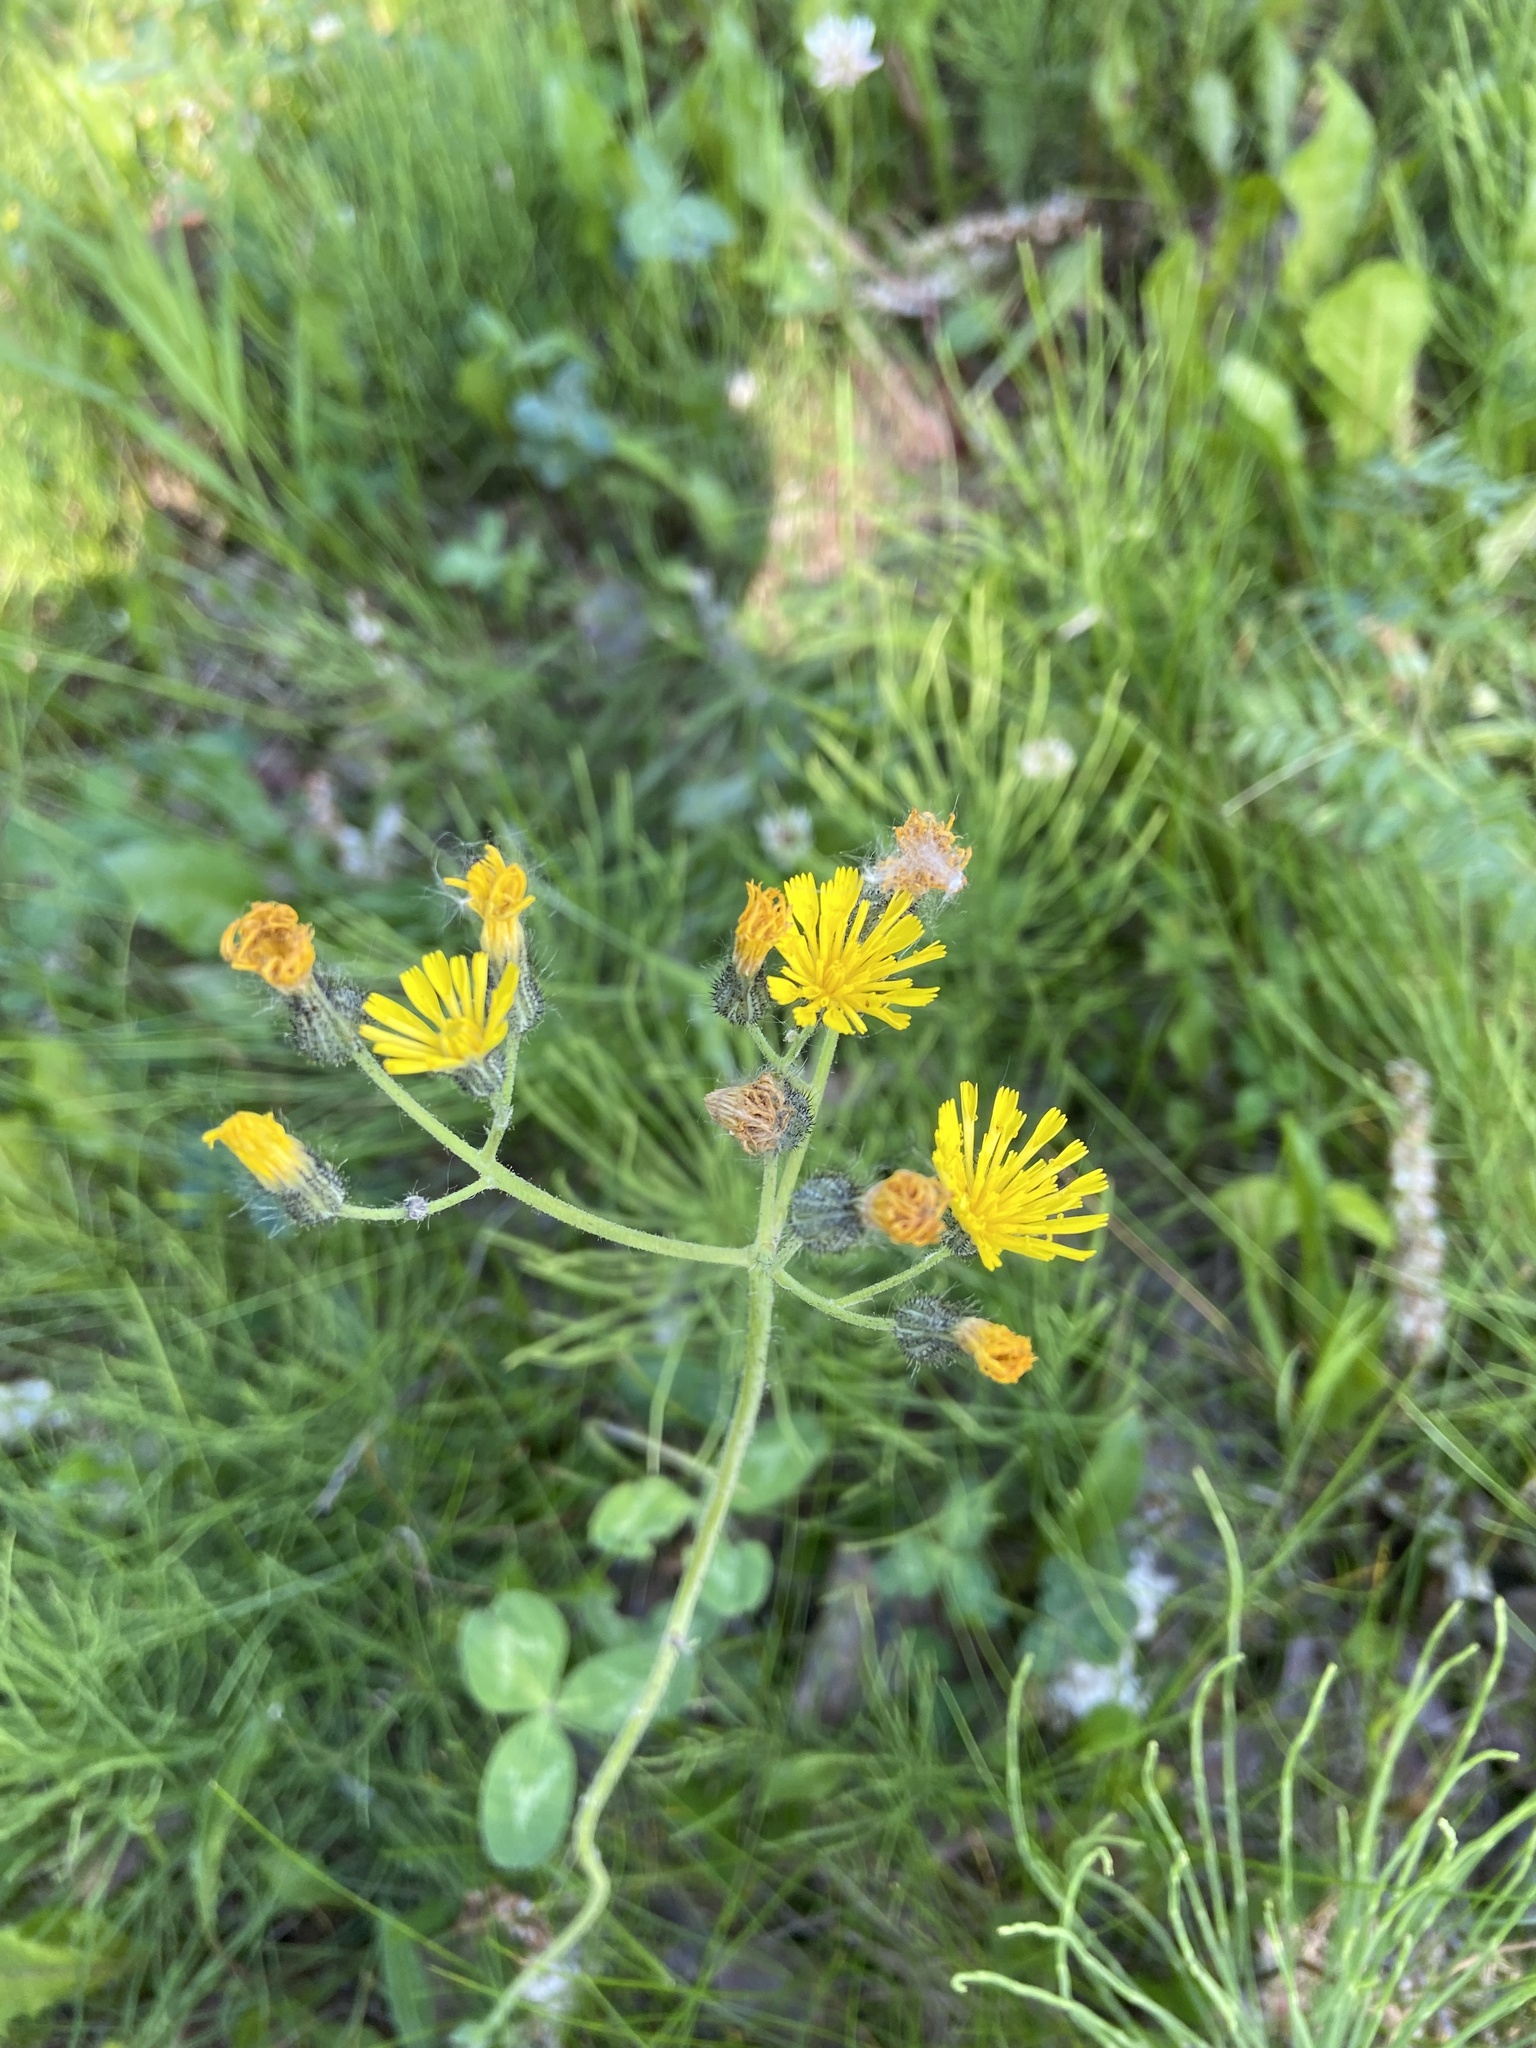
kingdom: Plantae
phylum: Tracheophyta
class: Magnoliopsida
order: Asterales
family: Asteraceae
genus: Pilosella
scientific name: Pilosella caespitosa
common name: Yellow fox-and-cubs
